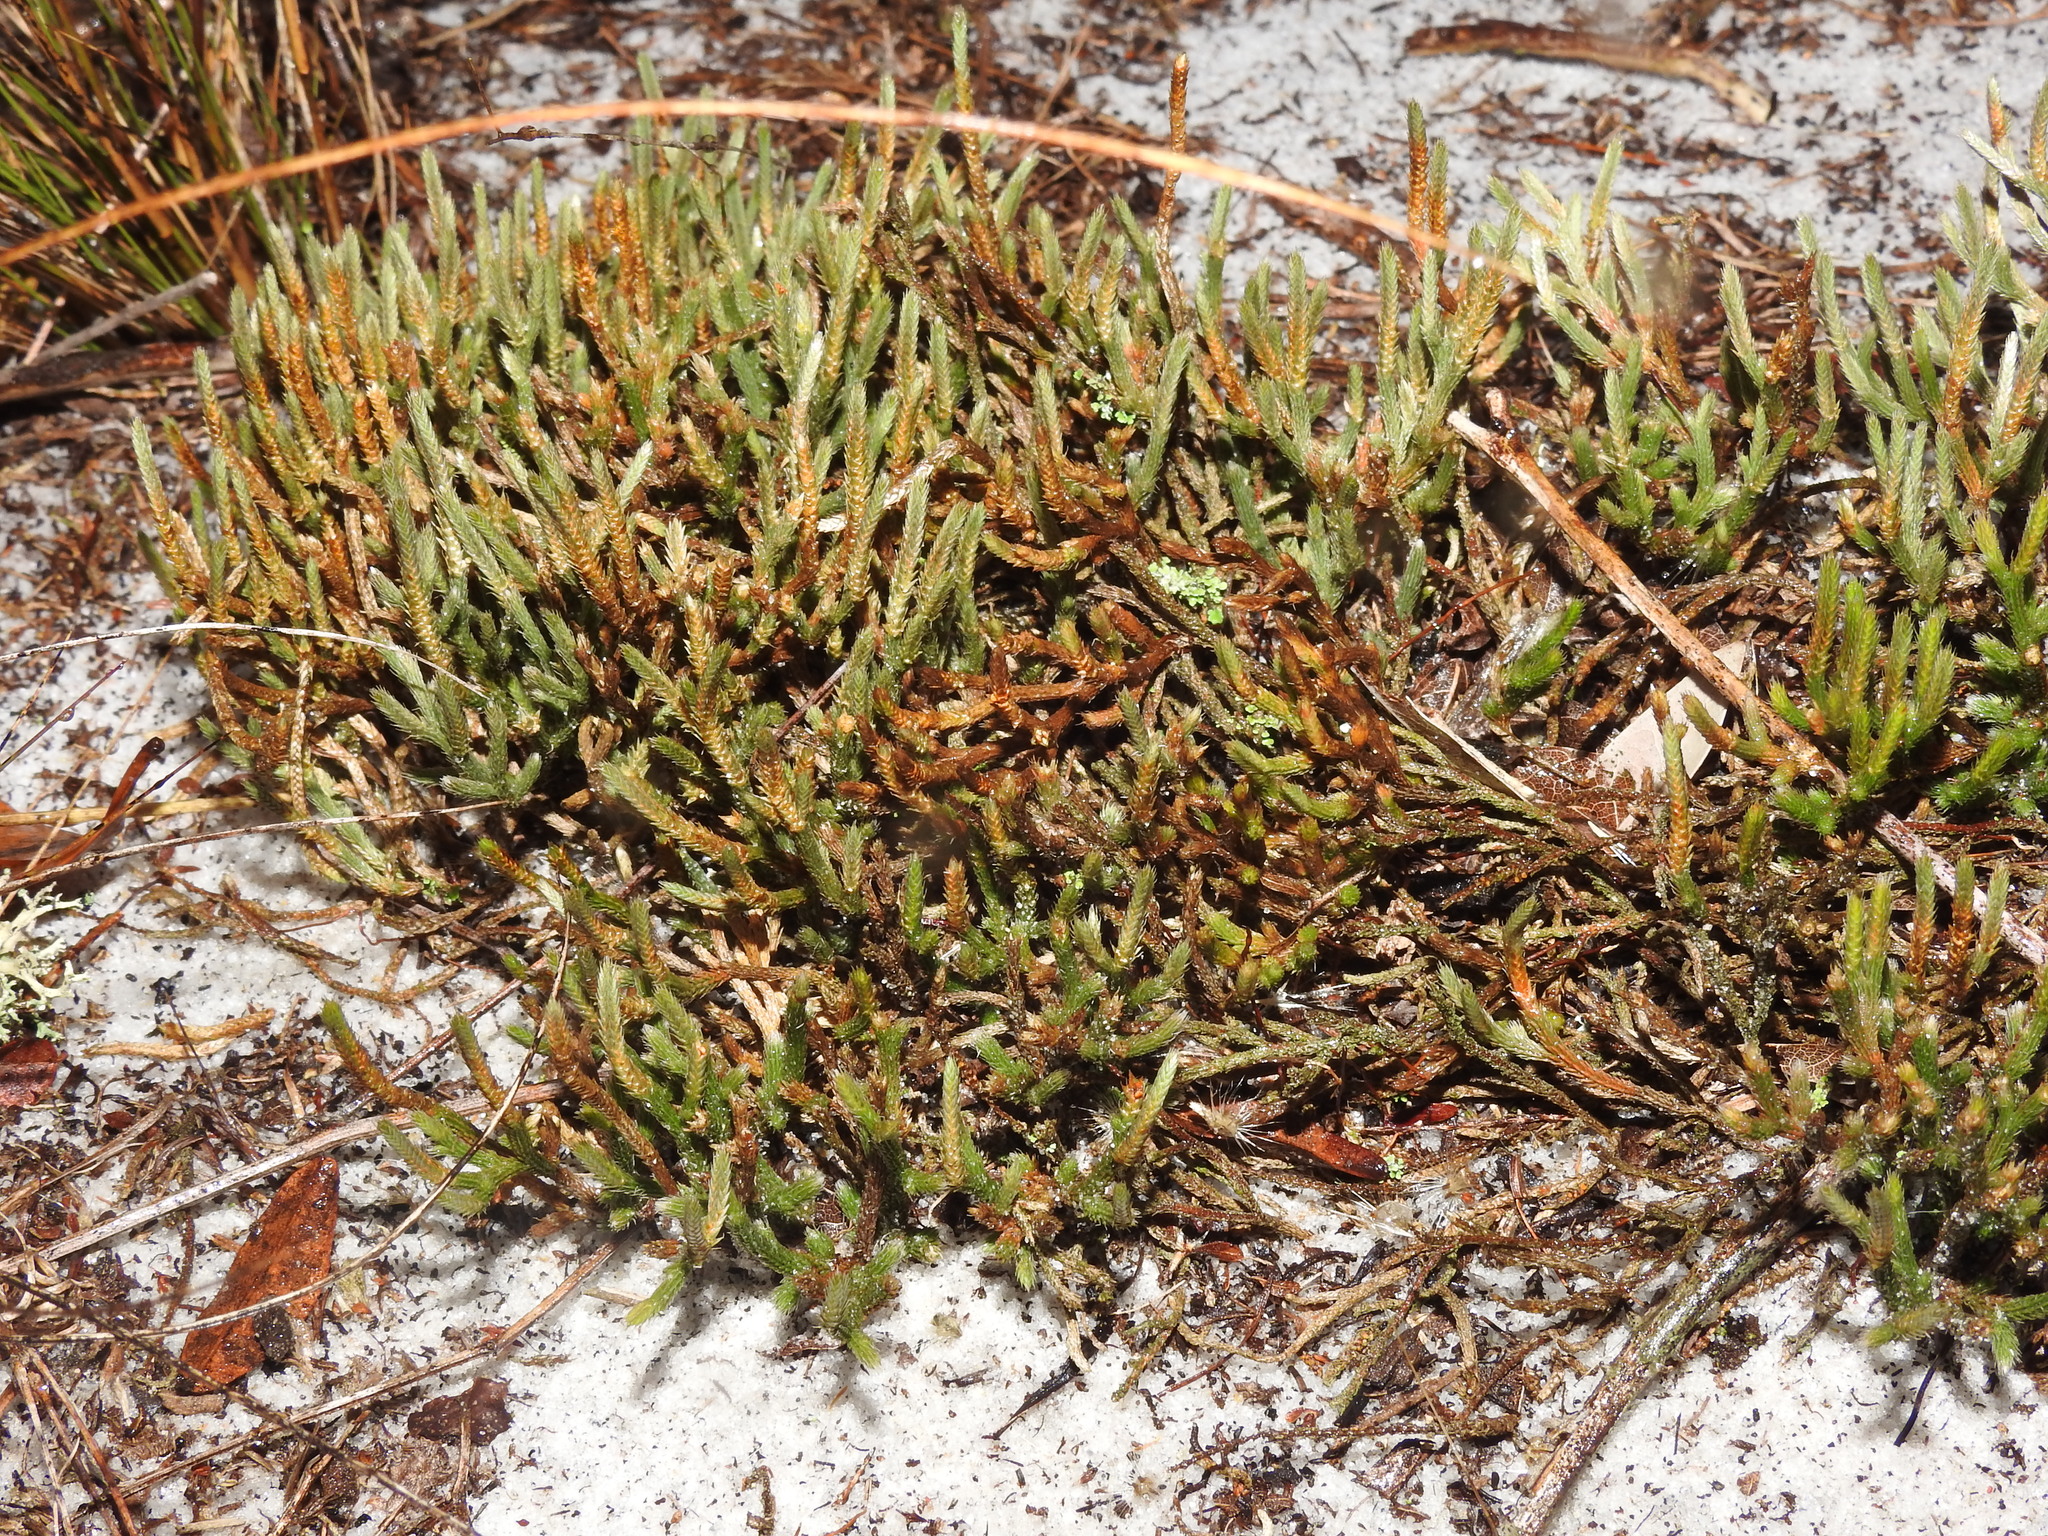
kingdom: Plantae
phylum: Tracheophyta
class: Lycopodiopsida
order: Selaginellales
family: Selaginellaceae
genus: Selaginella
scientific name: Selaginella arenicola
